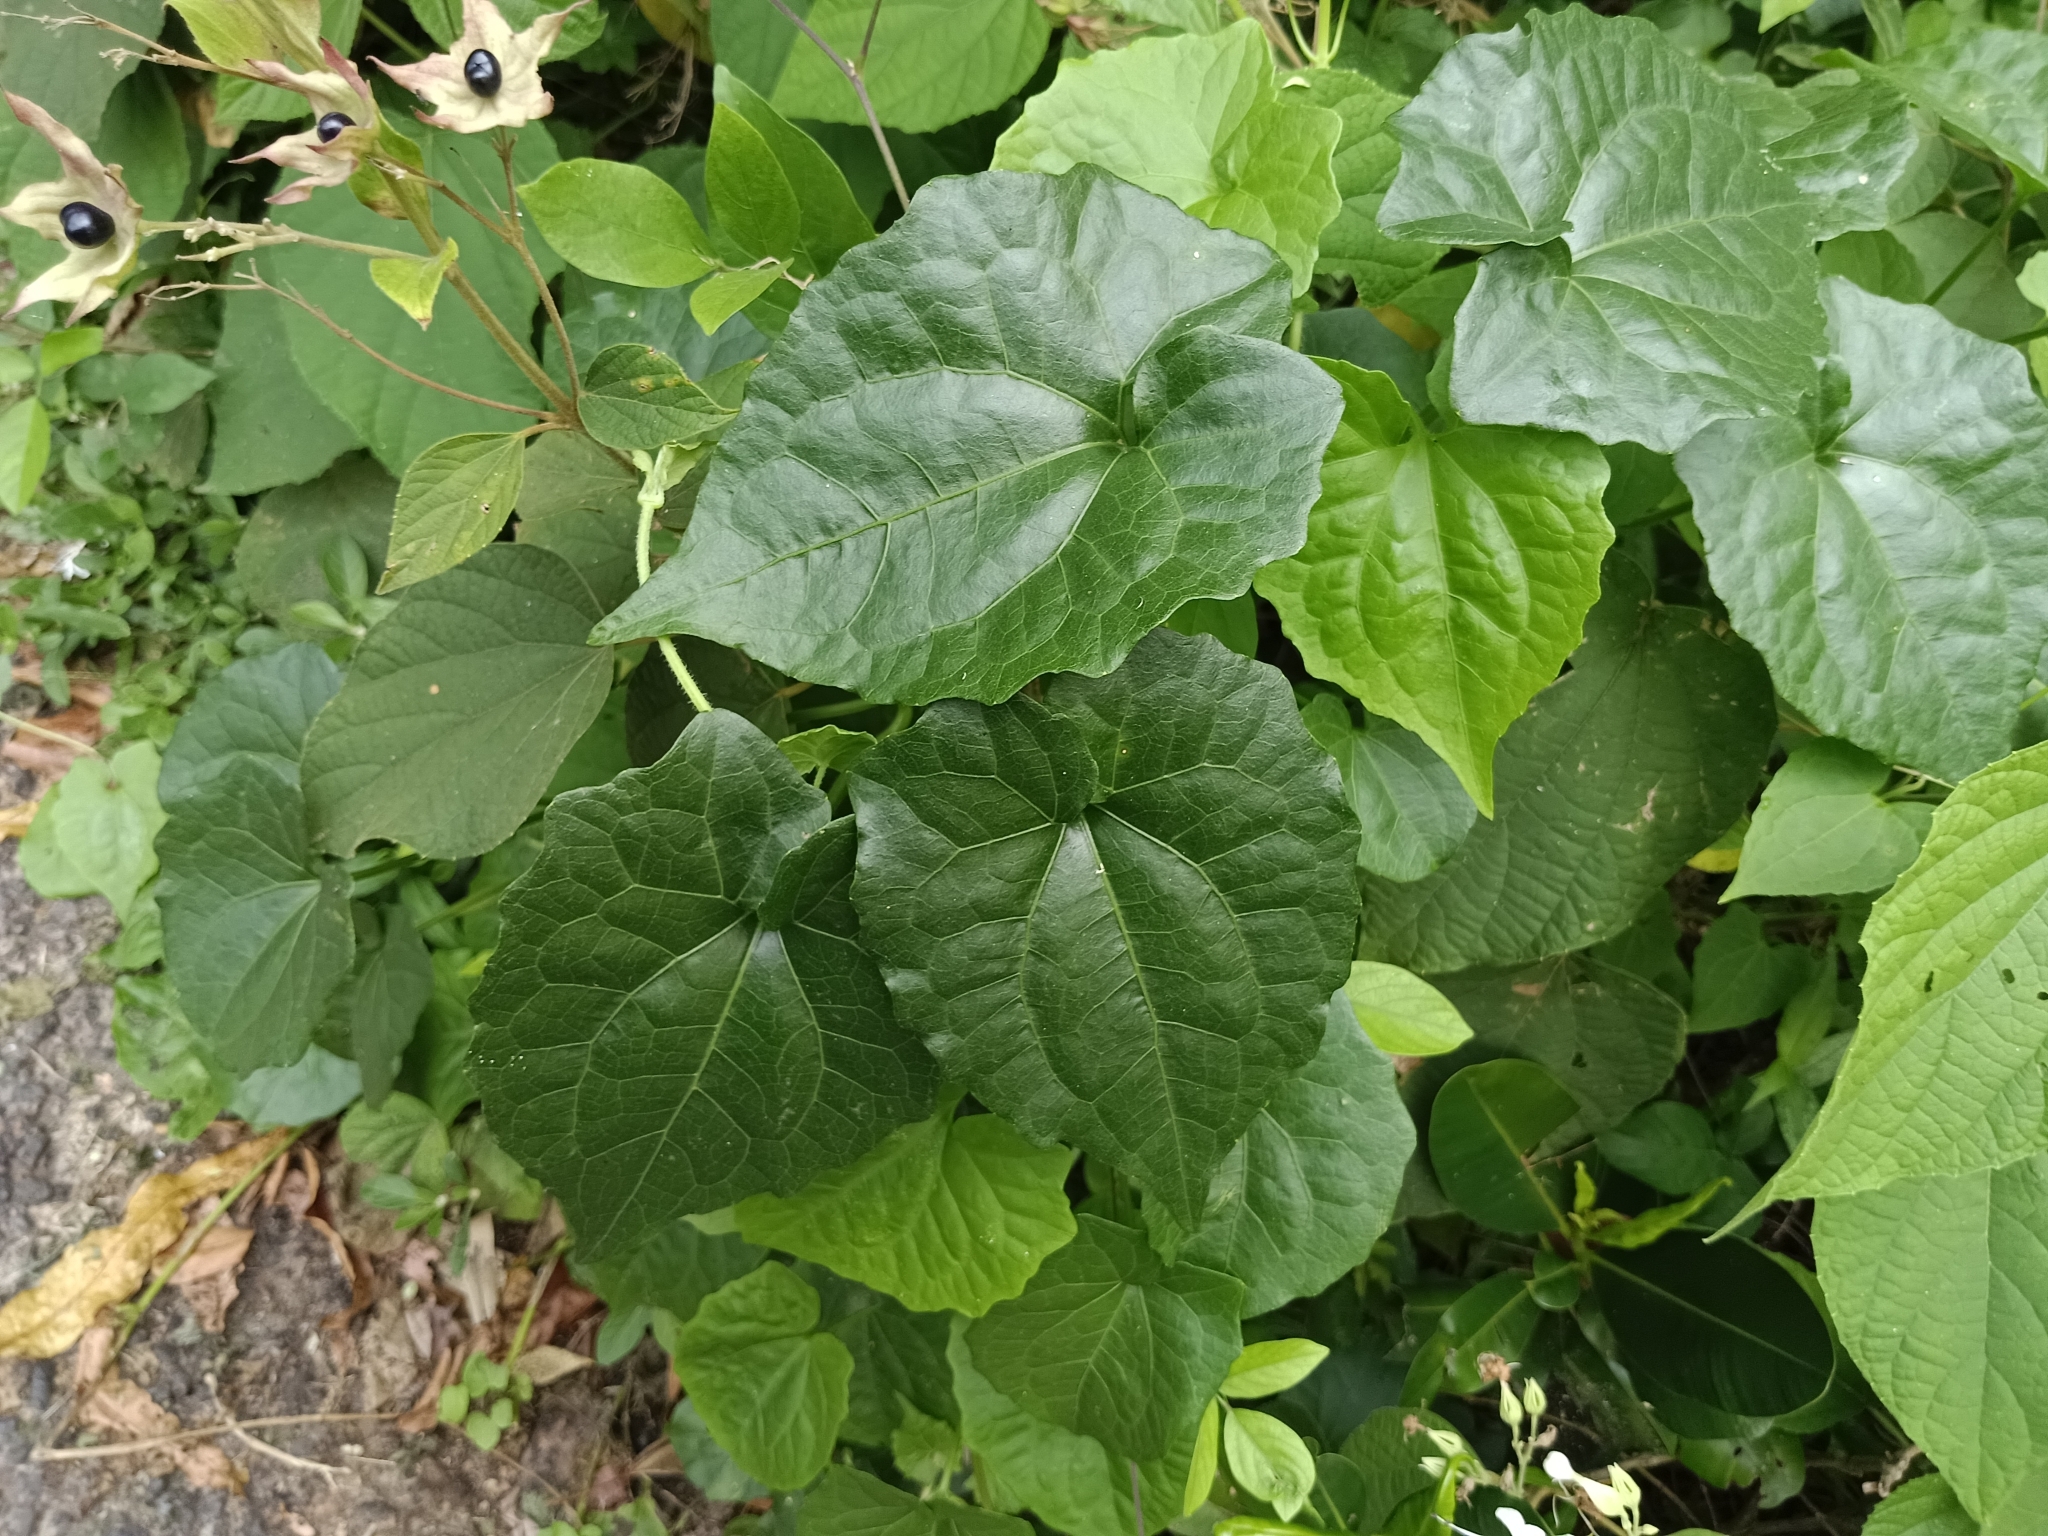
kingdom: Plantae
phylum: Tracheophyta
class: Magnoliopsida
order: Asterales
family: Asteraceae
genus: Mikania
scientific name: Mikania micrantha
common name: Mile-a-minute
